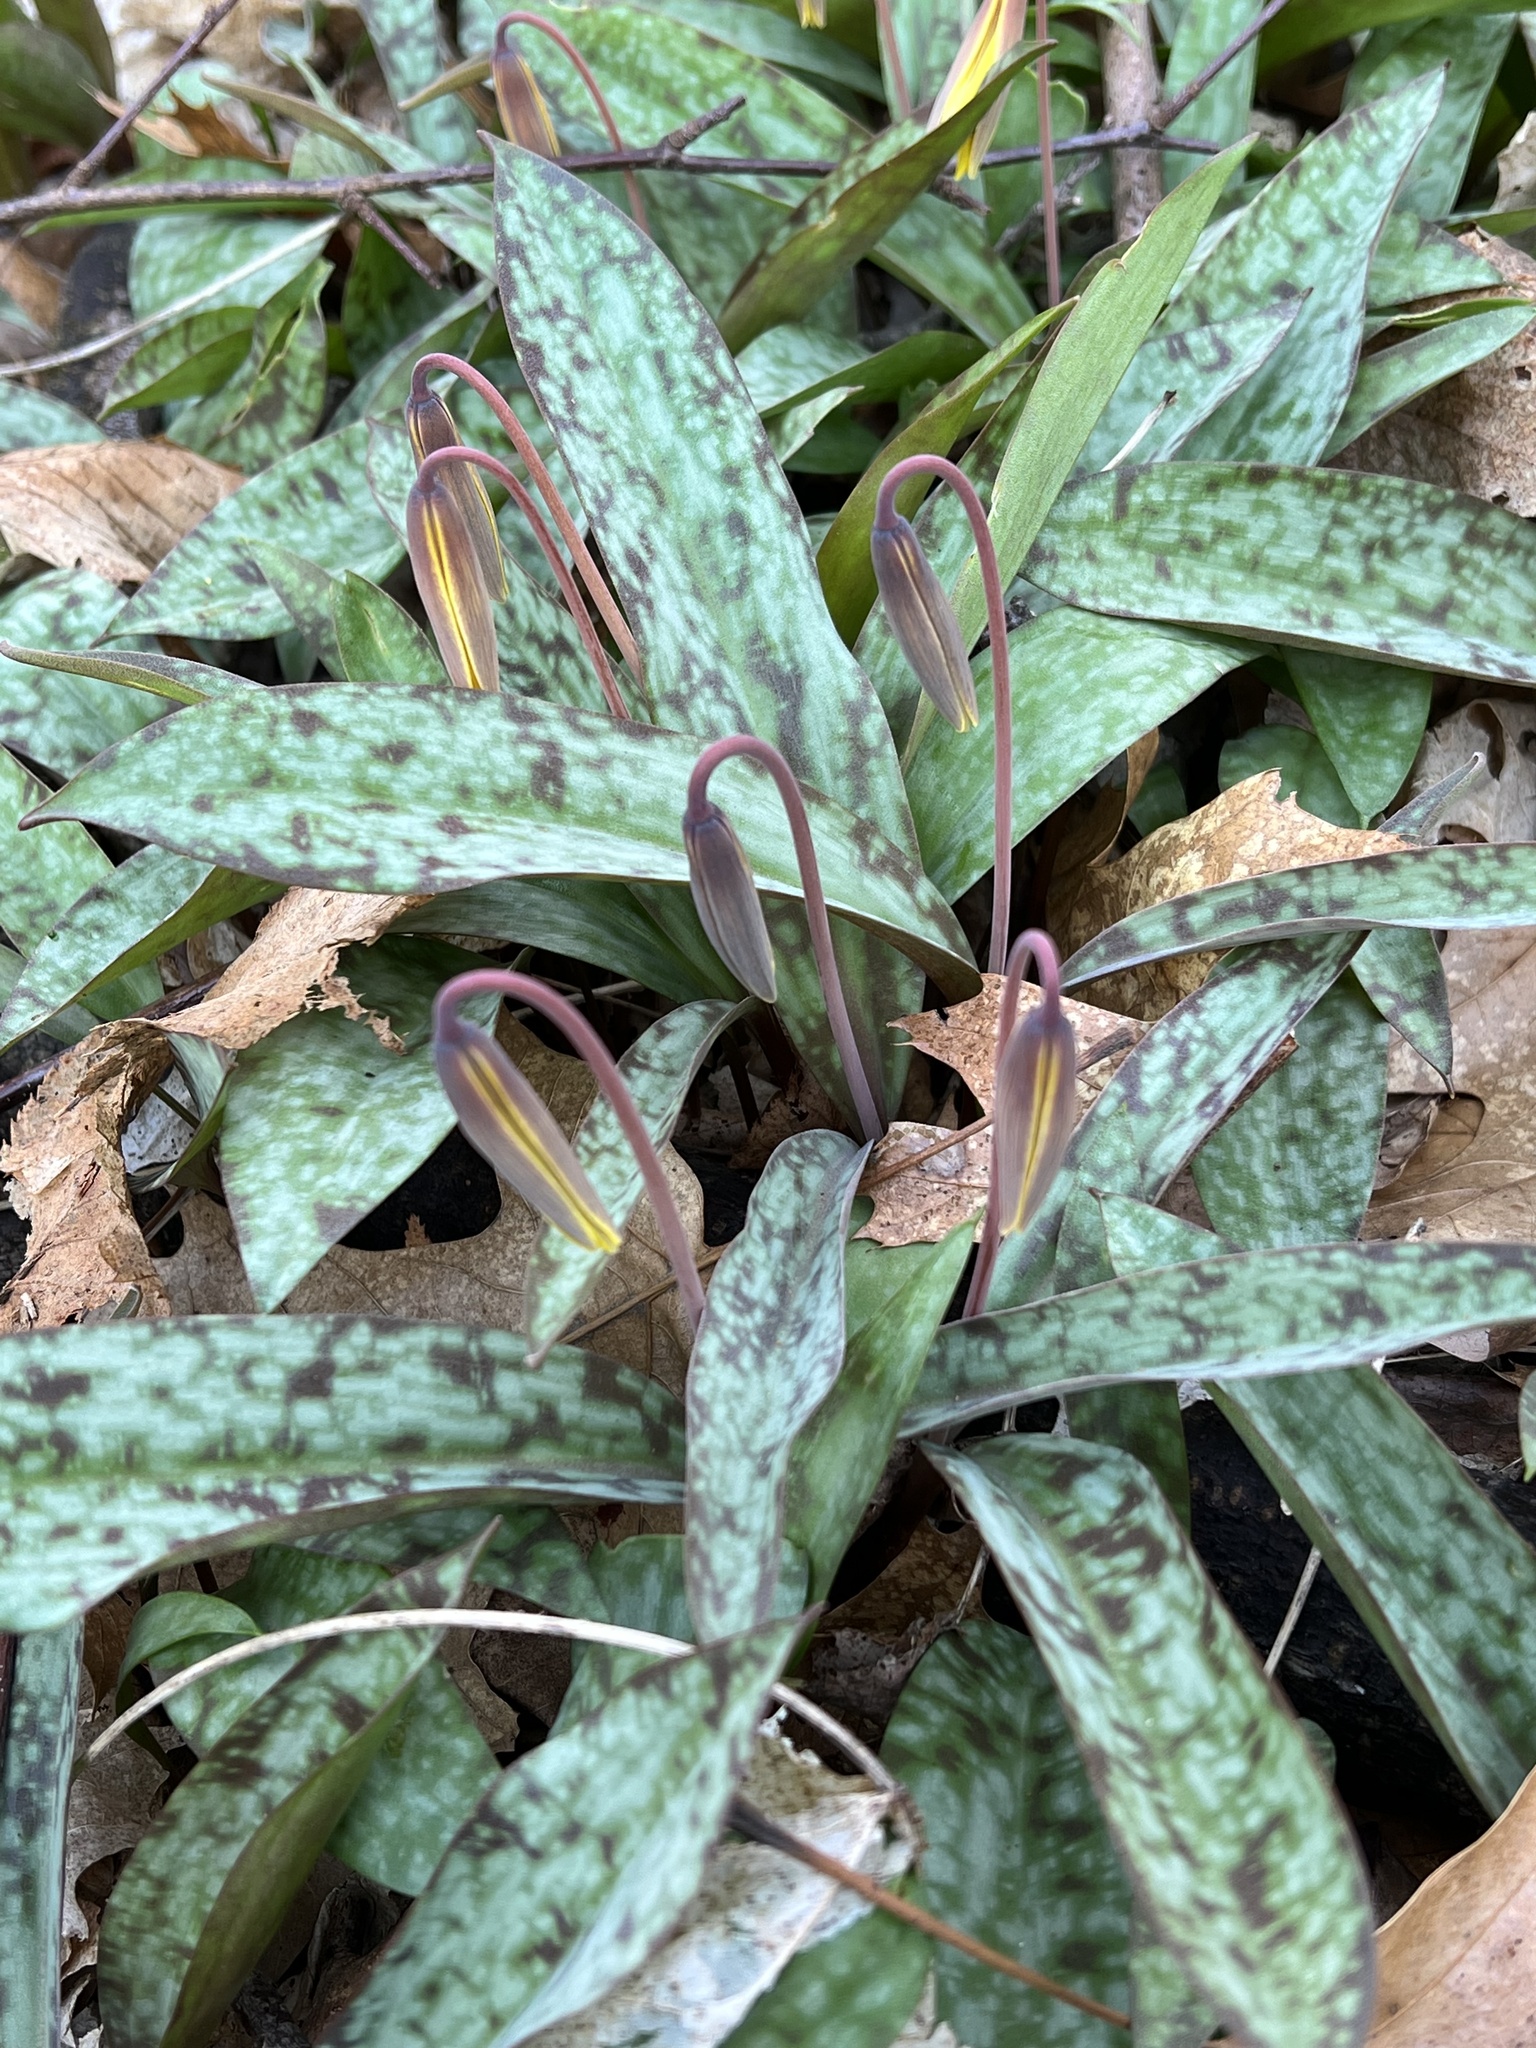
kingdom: Plantae
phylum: Tracheophyta
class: Liliopsida
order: Liliales
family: Liliaceae
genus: Erythronium
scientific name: Erythronium americanum
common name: Yellow adder's-tongue
